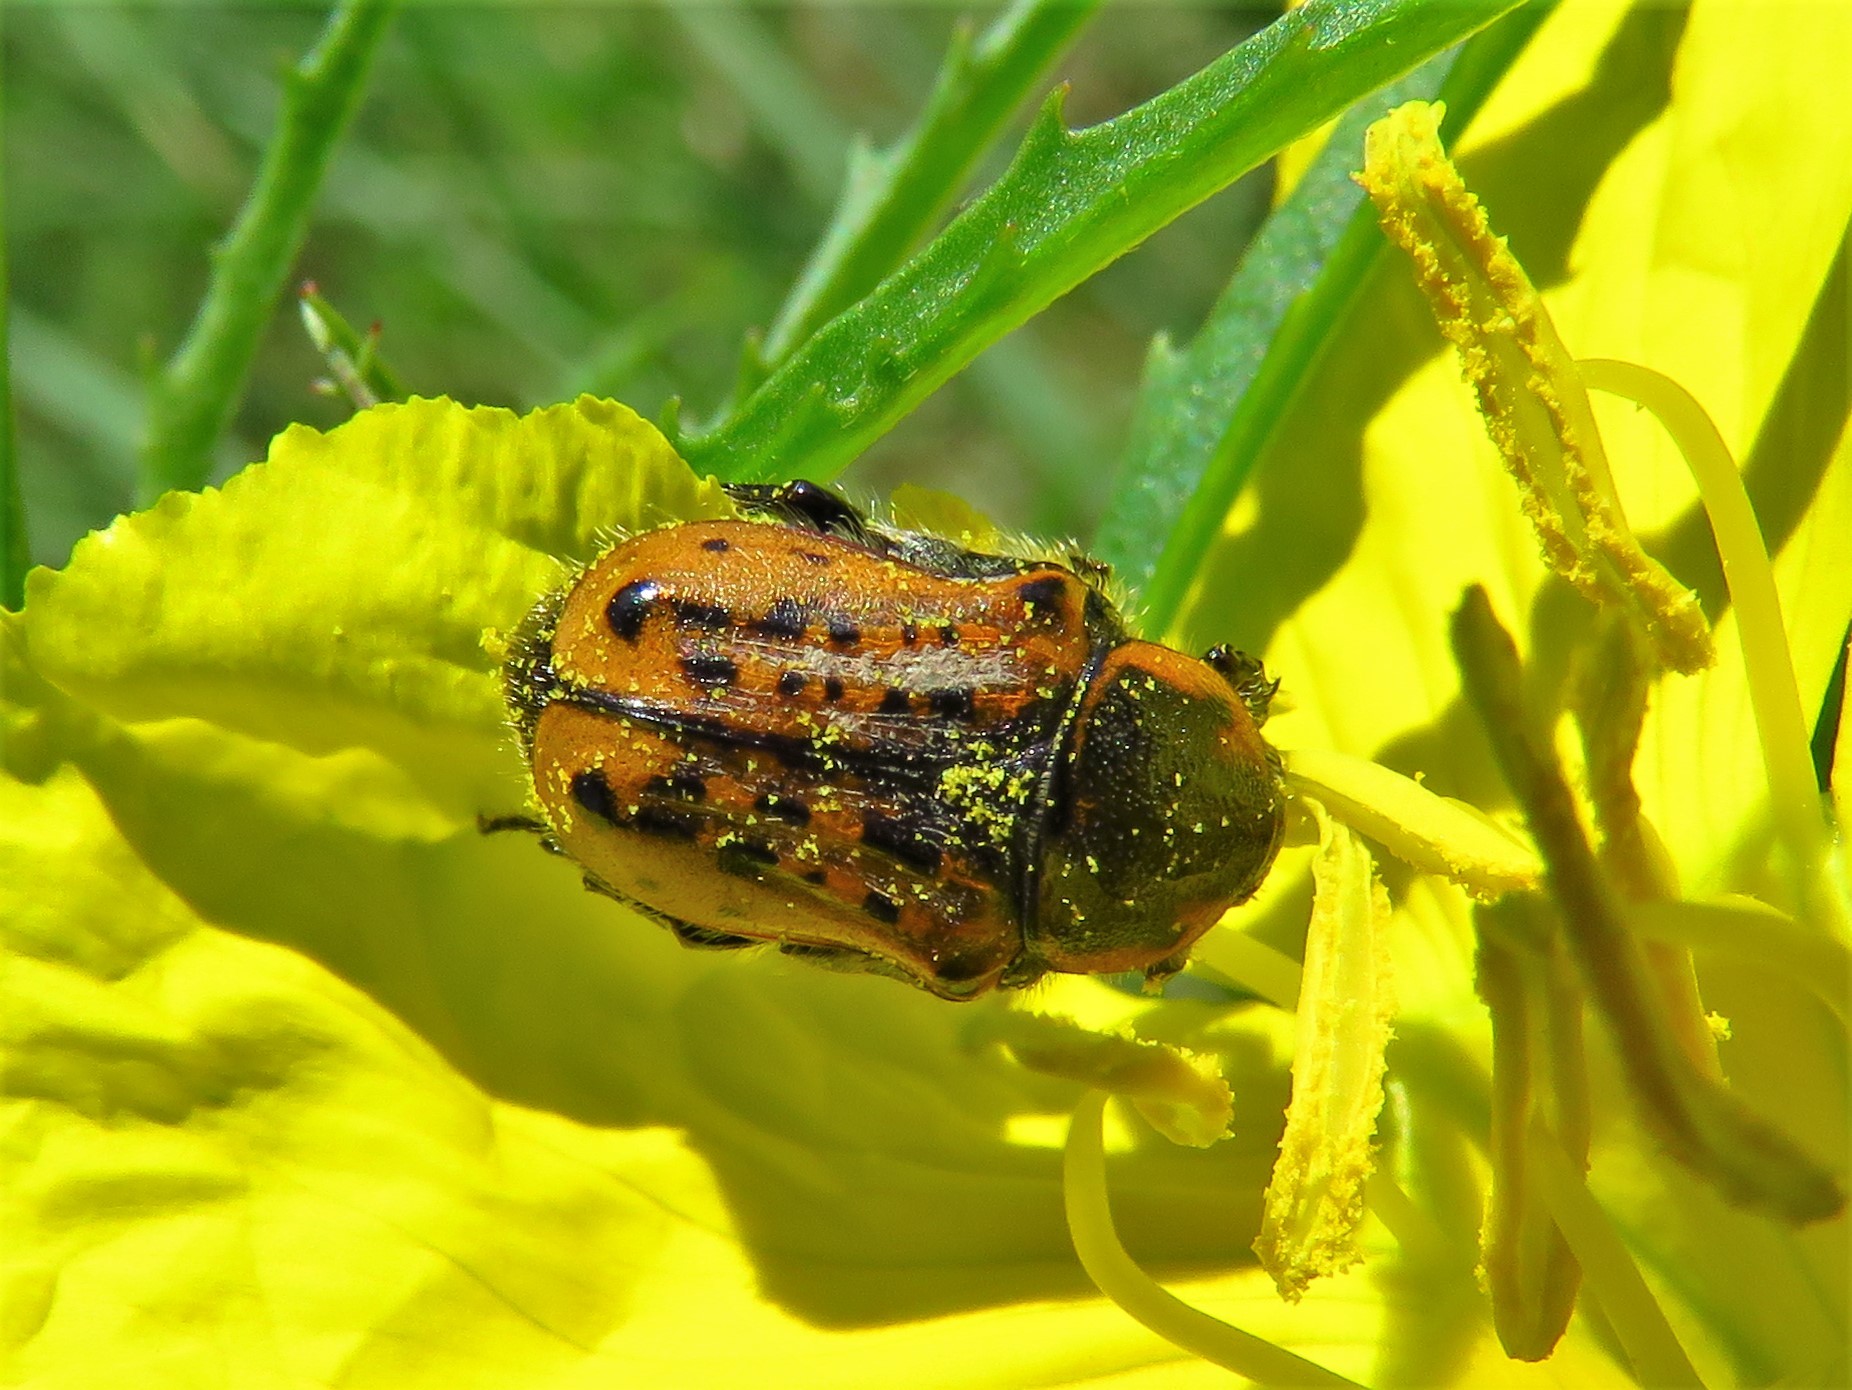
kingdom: Animalia
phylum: Arthropoda
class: Insecta
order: Coleoptera
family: Scarabaeidae
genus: Euphoria
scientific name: Euphoria kernii
